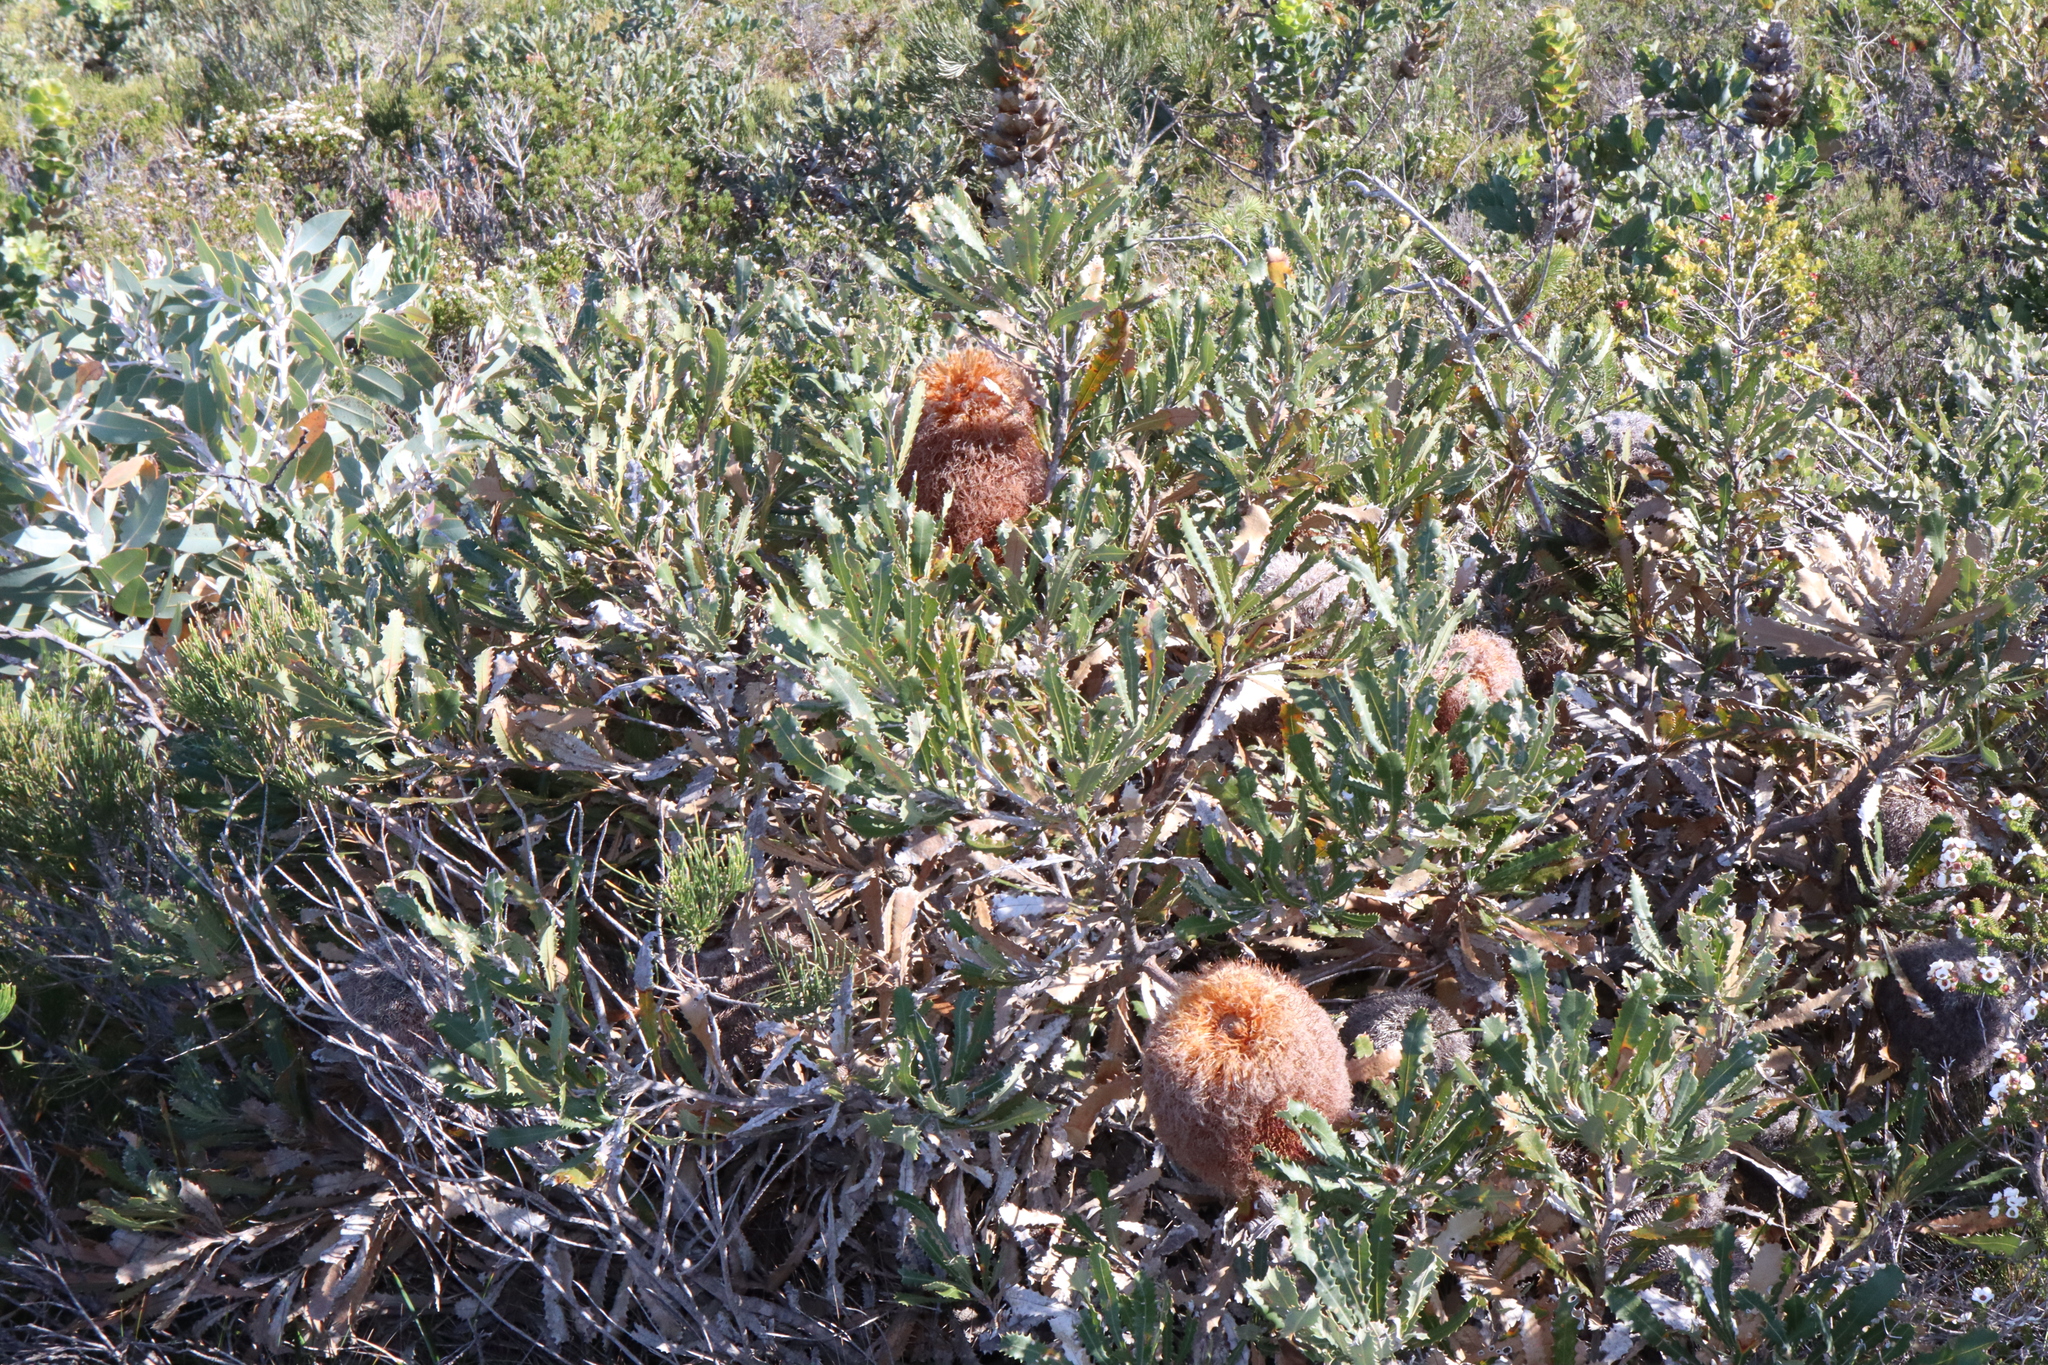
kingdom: Plantae
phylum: Tracheophyta
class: Magnoliopsida
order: Proteales
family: Proteaceae
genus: Banksia
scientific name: Banksia baueri
